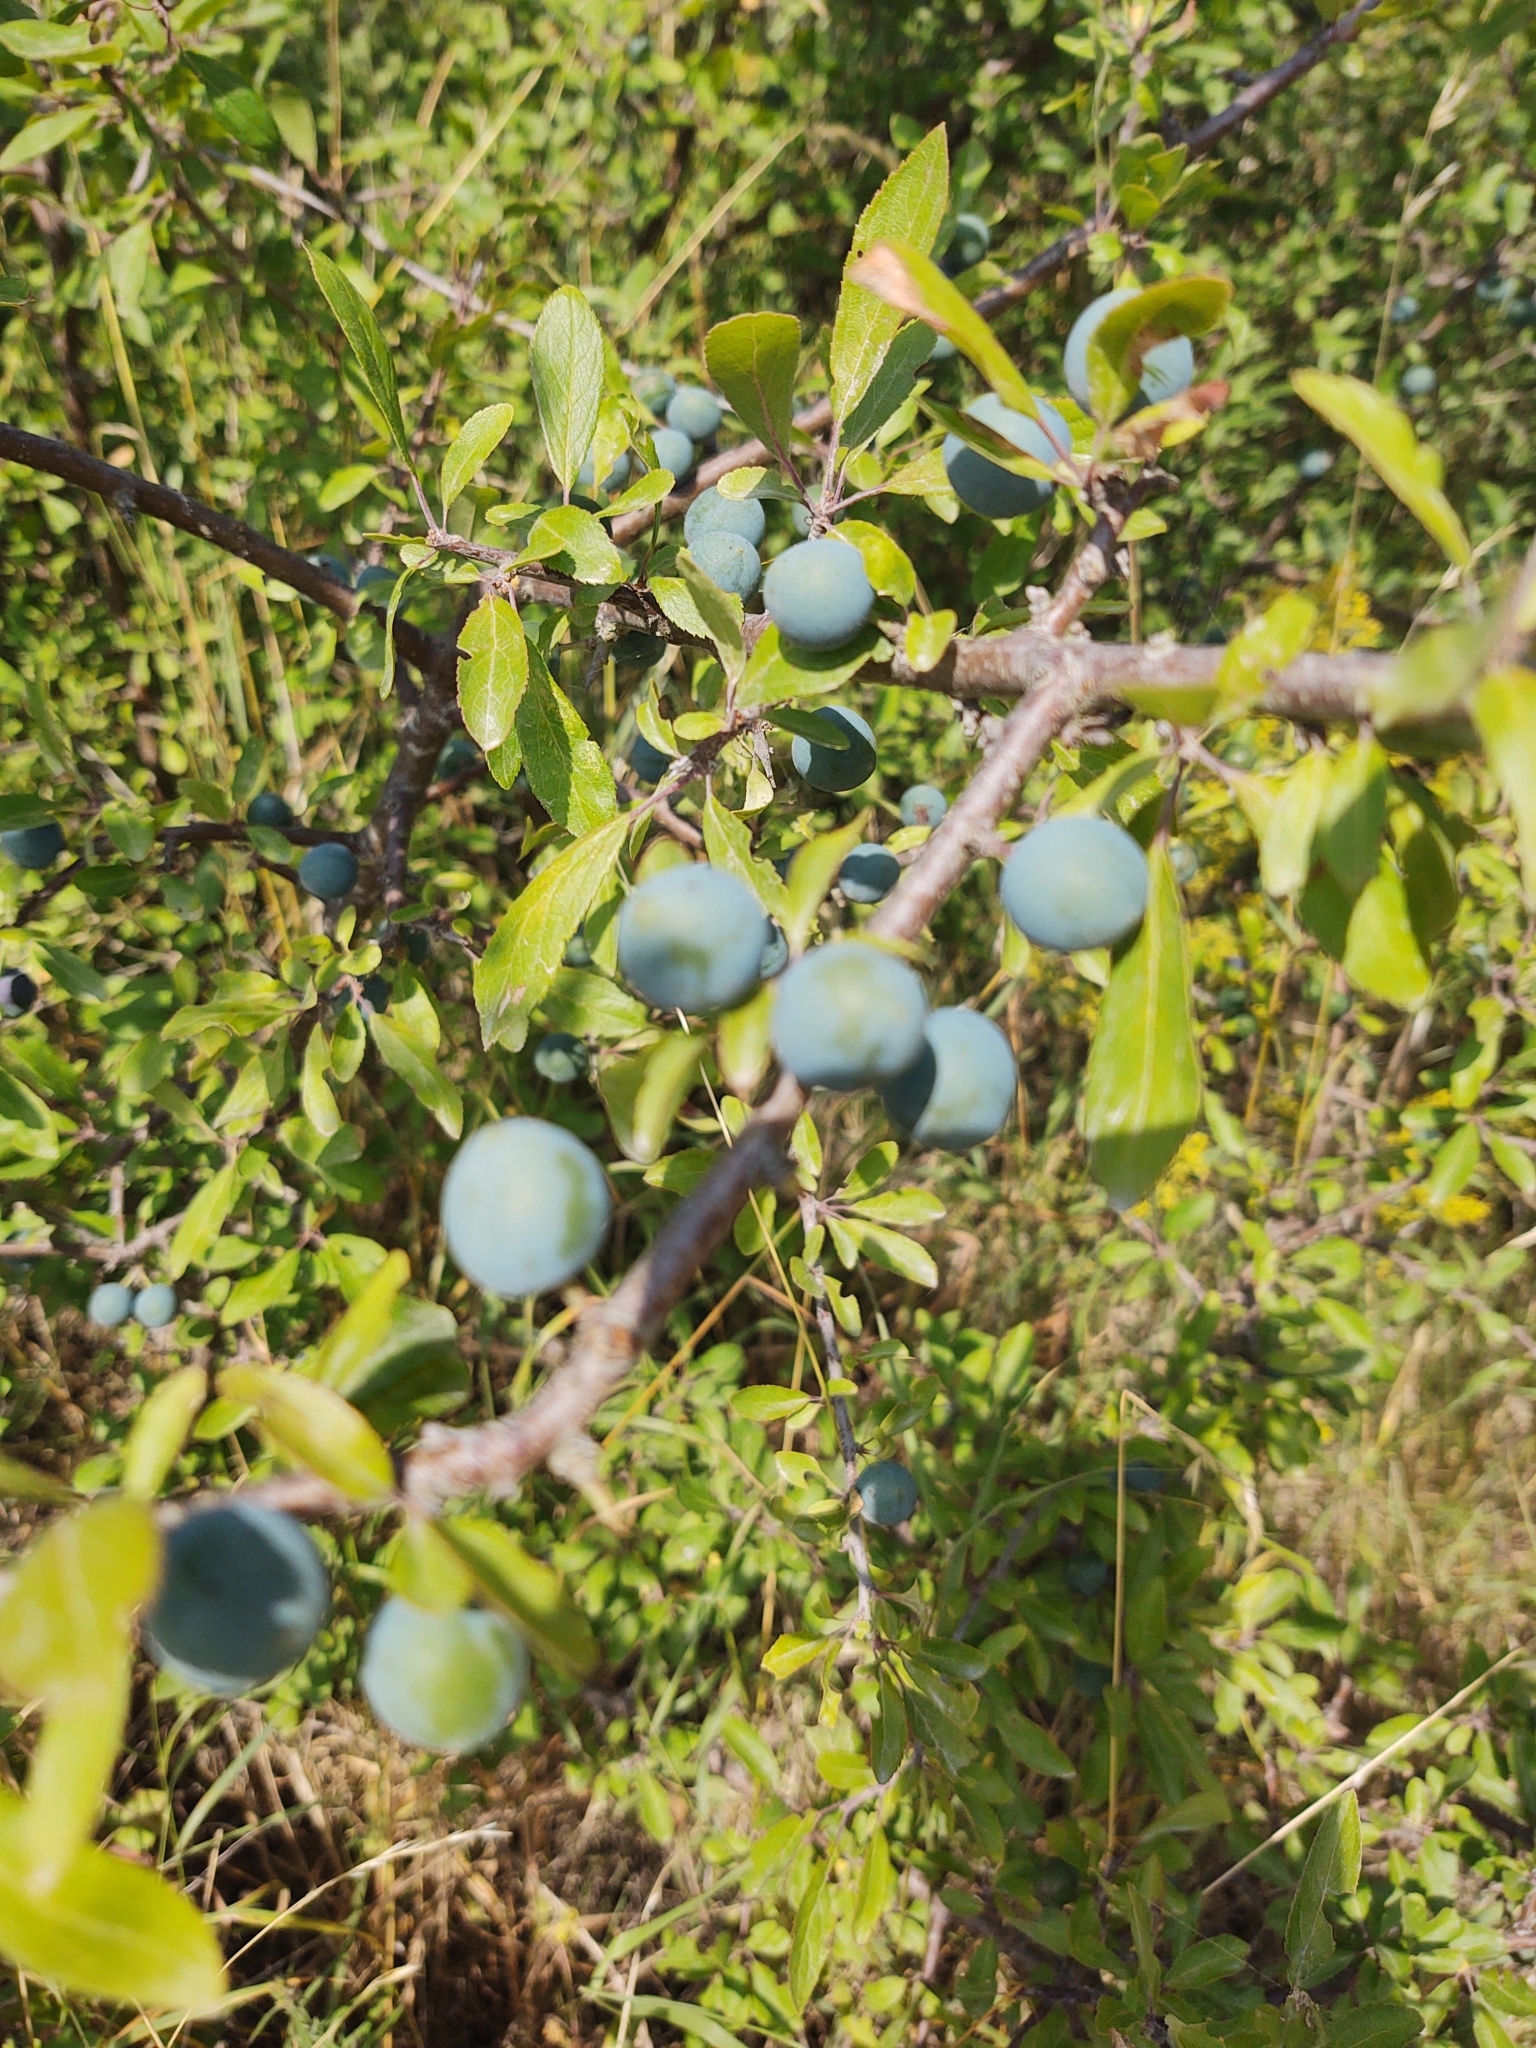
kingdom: Plantae
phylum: Tracheophyta
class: Magnoliopsida
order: Rosales
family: Rosaceae
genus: Prunus
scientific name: Prunus spinosa
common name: Blackthorn
